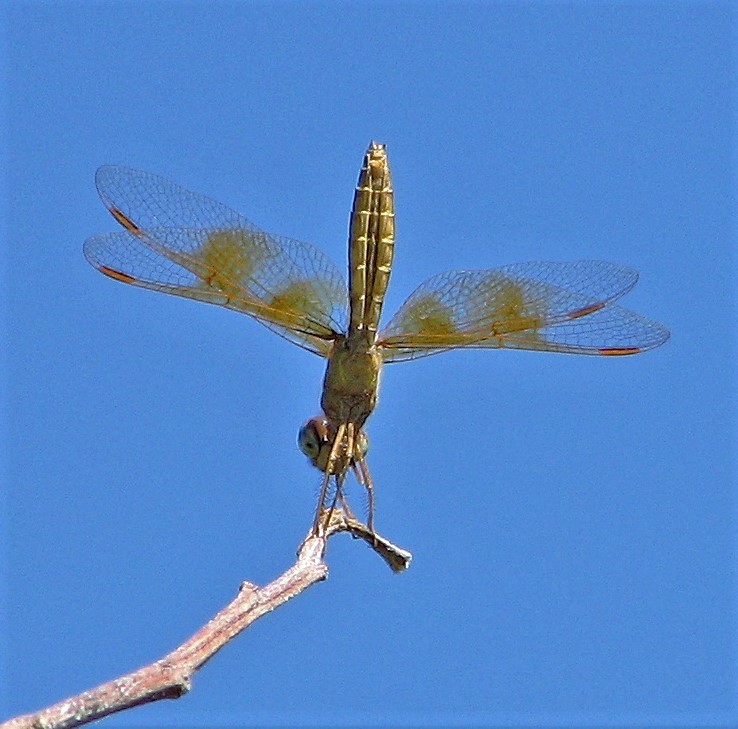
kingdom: Animalia
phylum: Arthropoda
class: Insecta
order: Odonata
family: Libellulidae
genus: Perithemis
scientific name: Perithemis tenera
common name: Eastern amberwing
